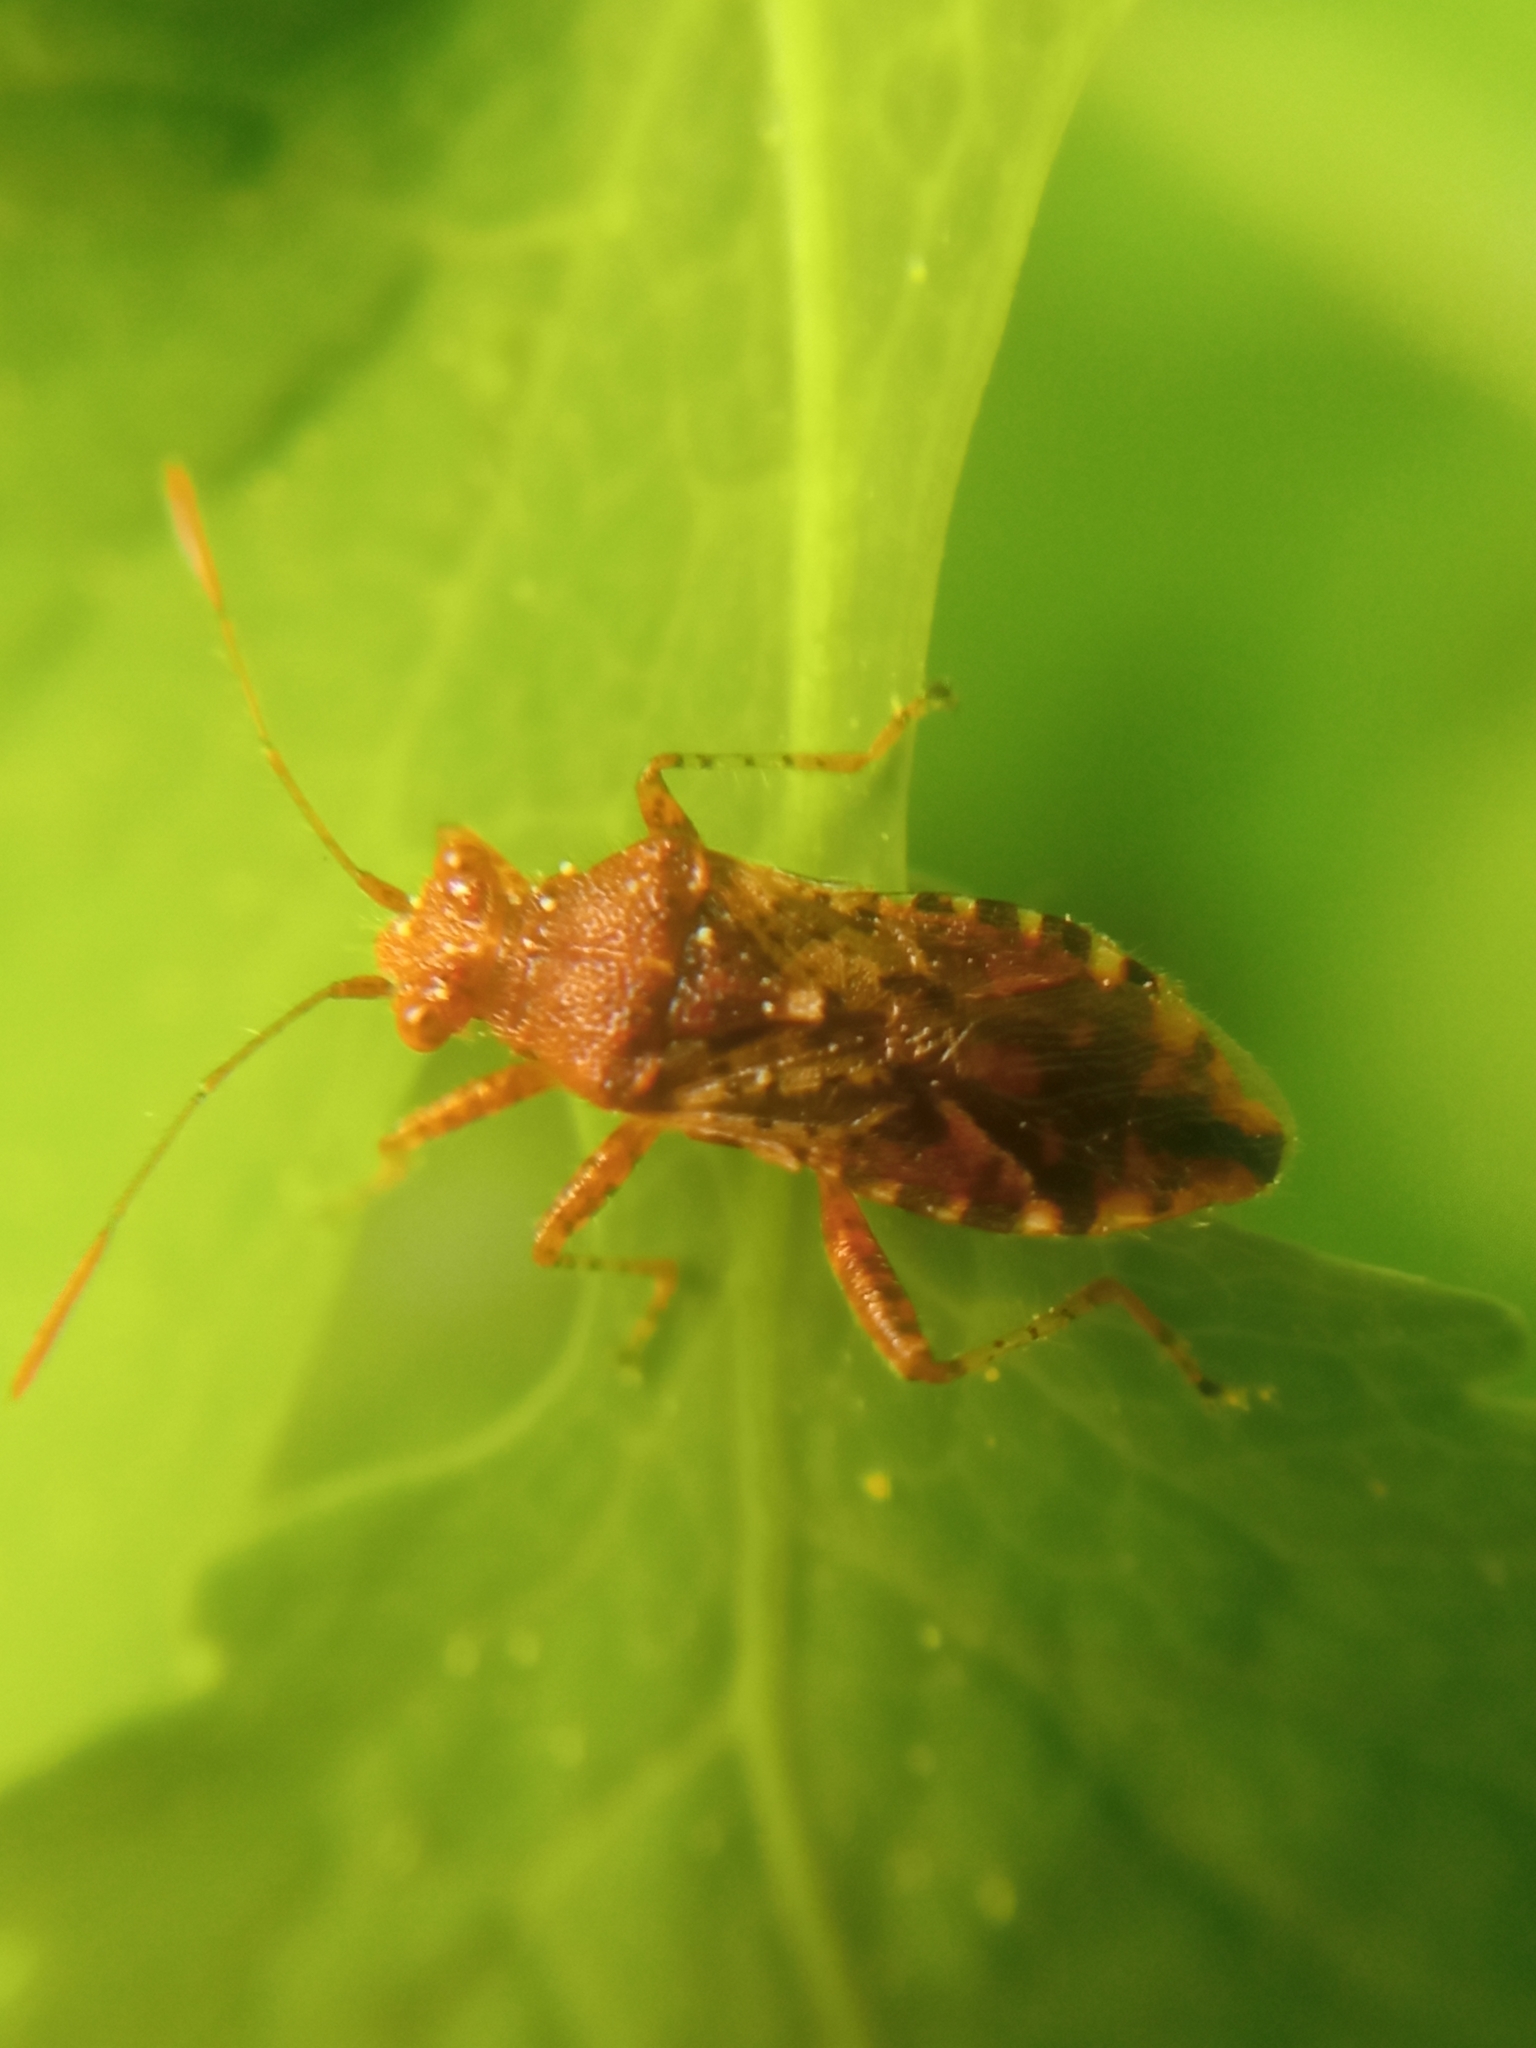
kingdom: Animalia
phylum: Arthropoda
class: Insecta
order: Hemiptera
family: Rhopalidae
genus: Rhopalus
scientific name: Rhopalus subrufus
